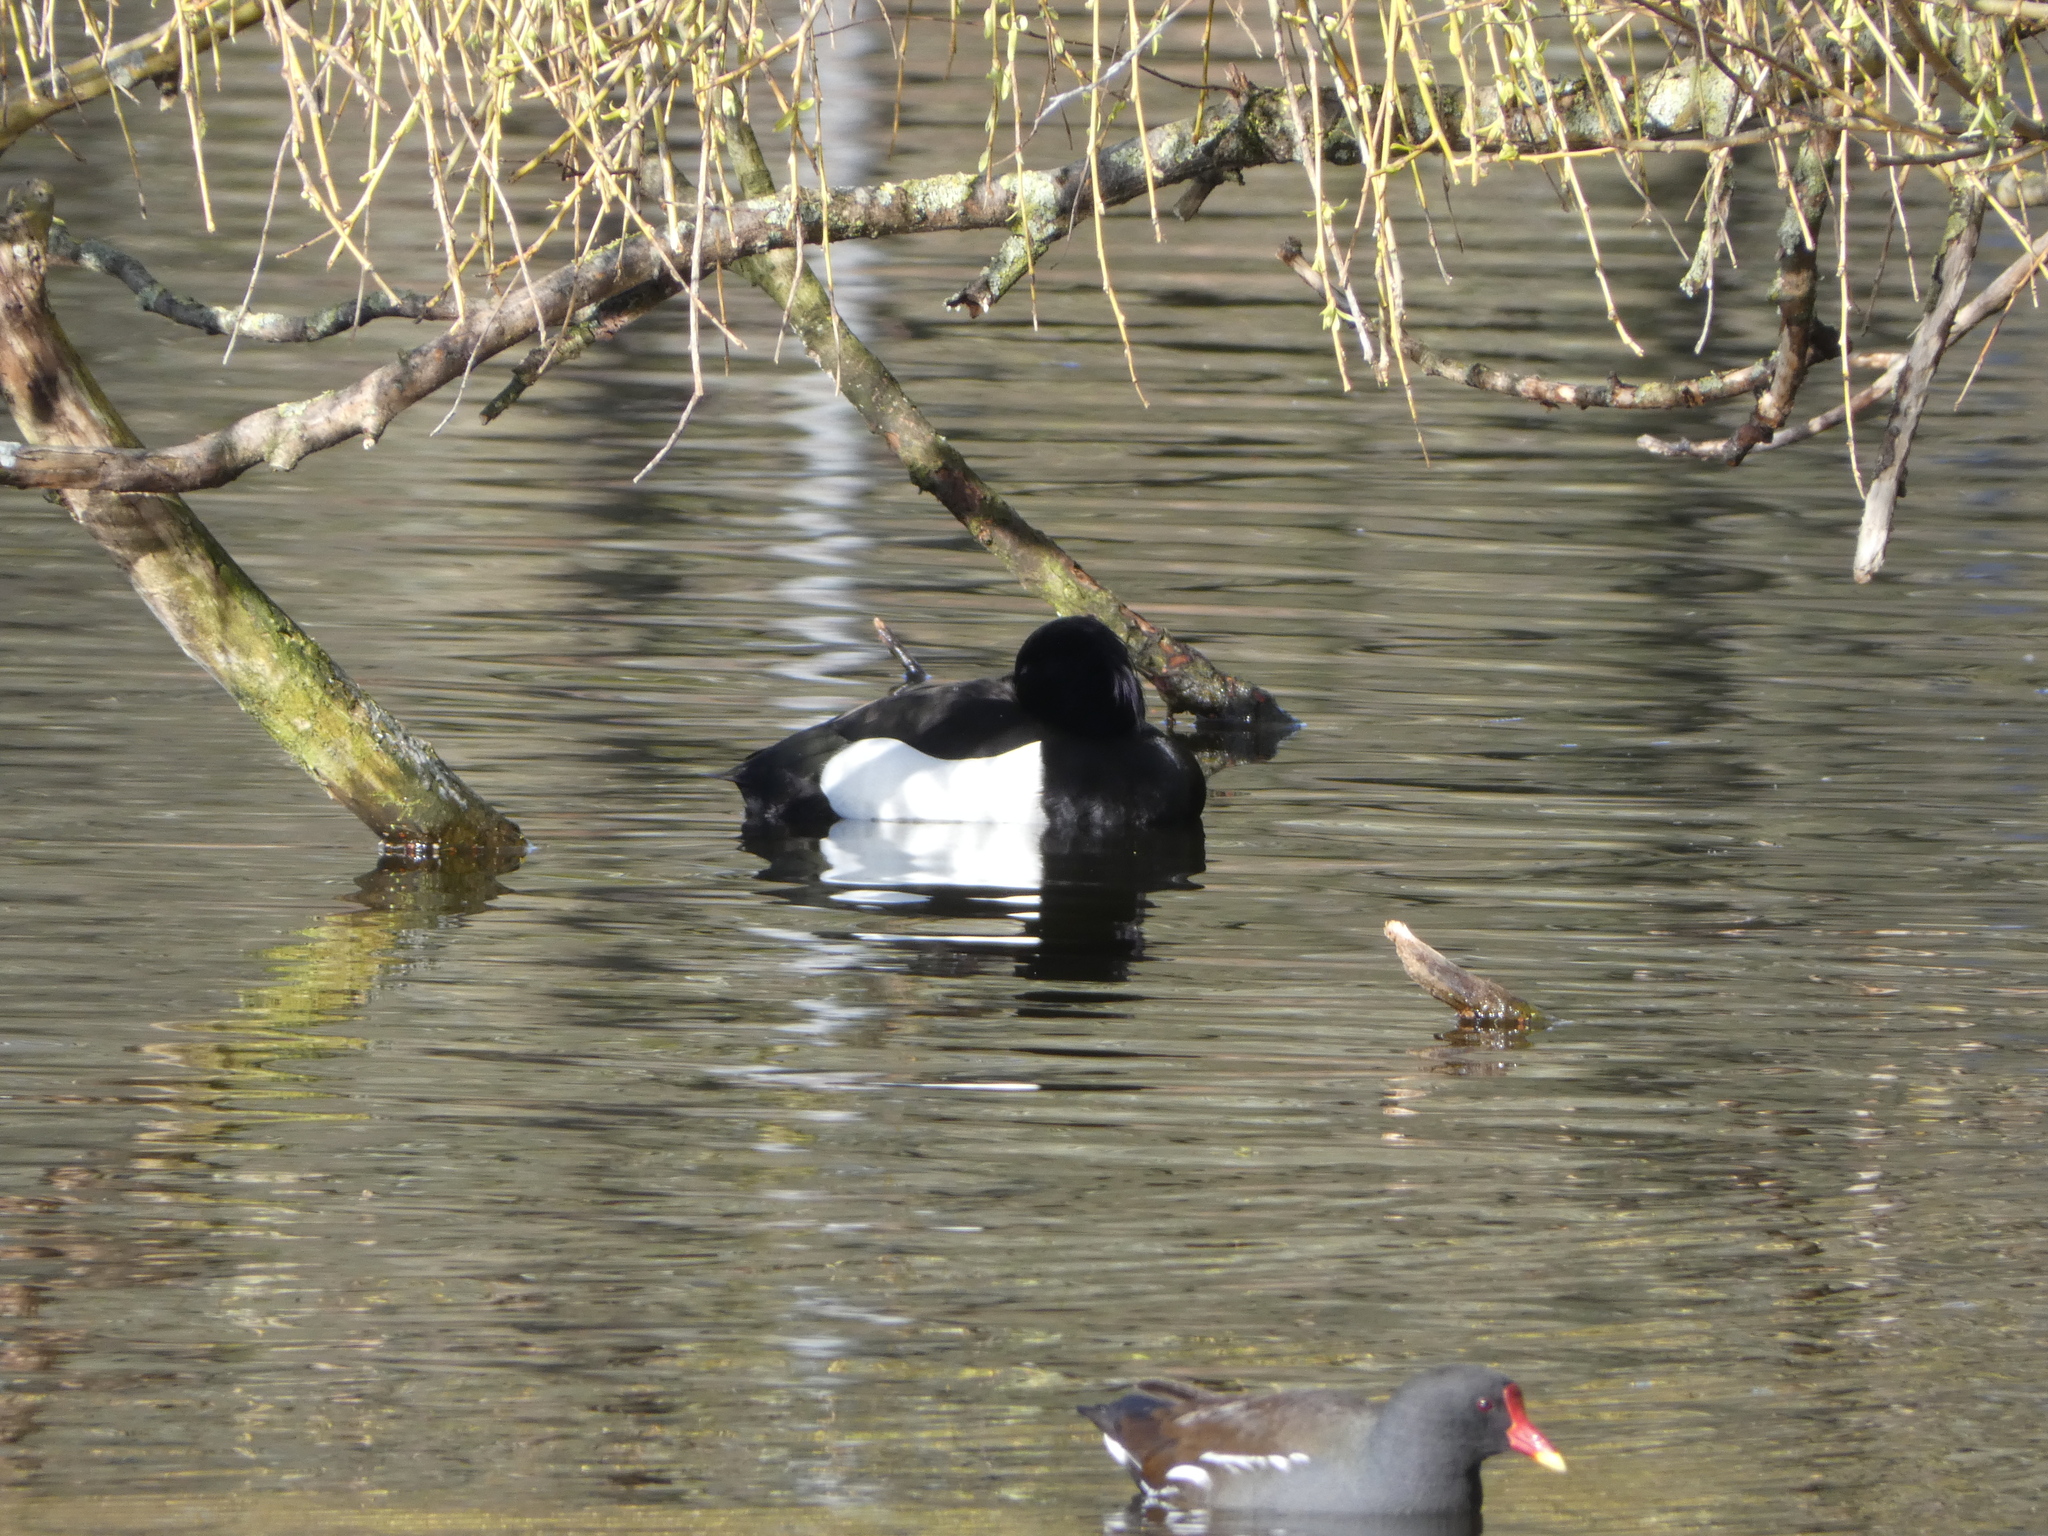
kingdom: Animalia
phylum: Chordata
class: Aves
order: Anseriformes
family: Anatidae
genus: Aythya
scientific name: Aythya fuligula
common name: Tufted duck
